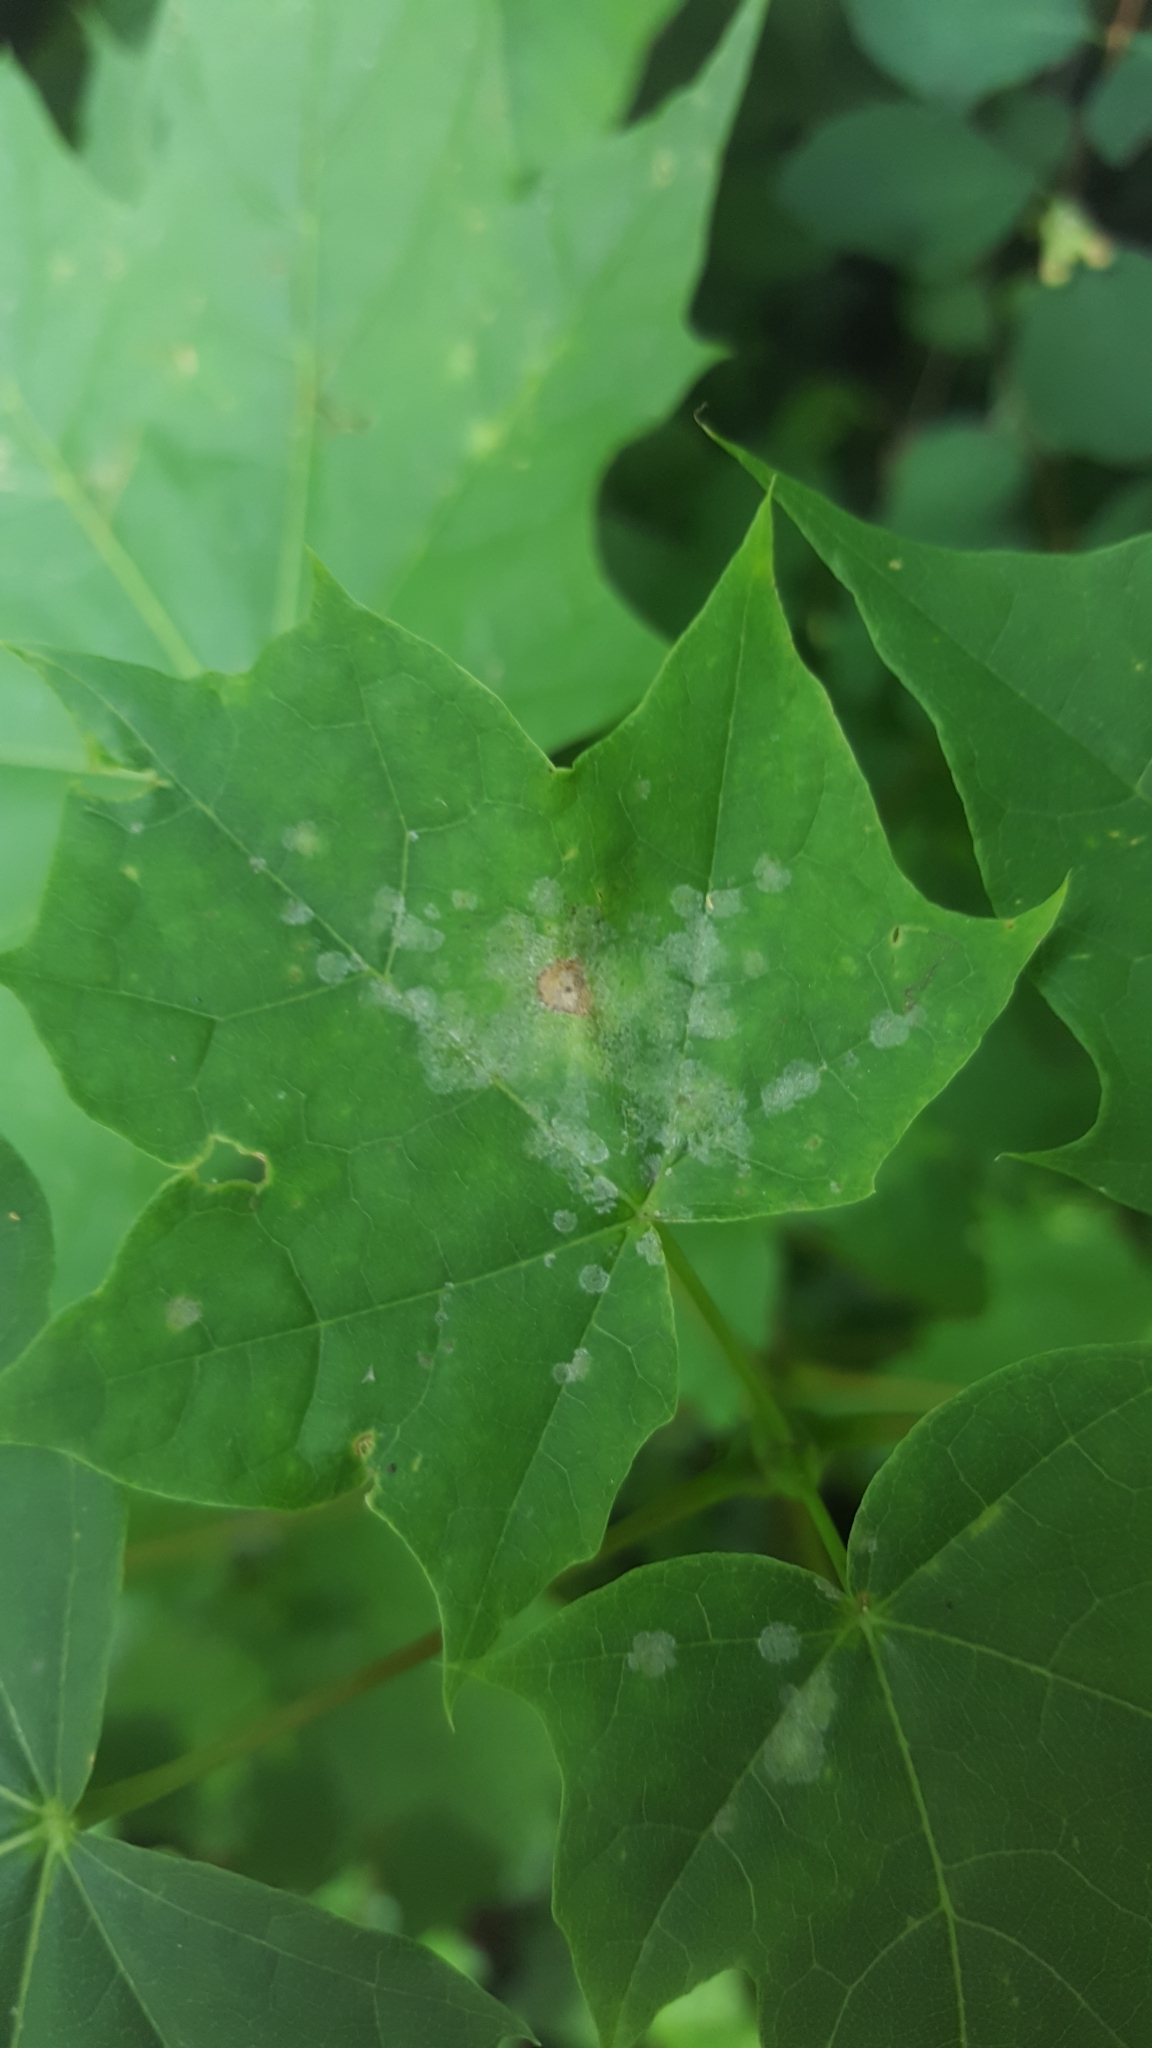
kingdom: Fungi
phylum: Ascomycota
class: Leotiomycetes
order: Helotiales
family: Erysiphaceae
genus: Sawadaea
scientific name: Sawadaea tulasnei
